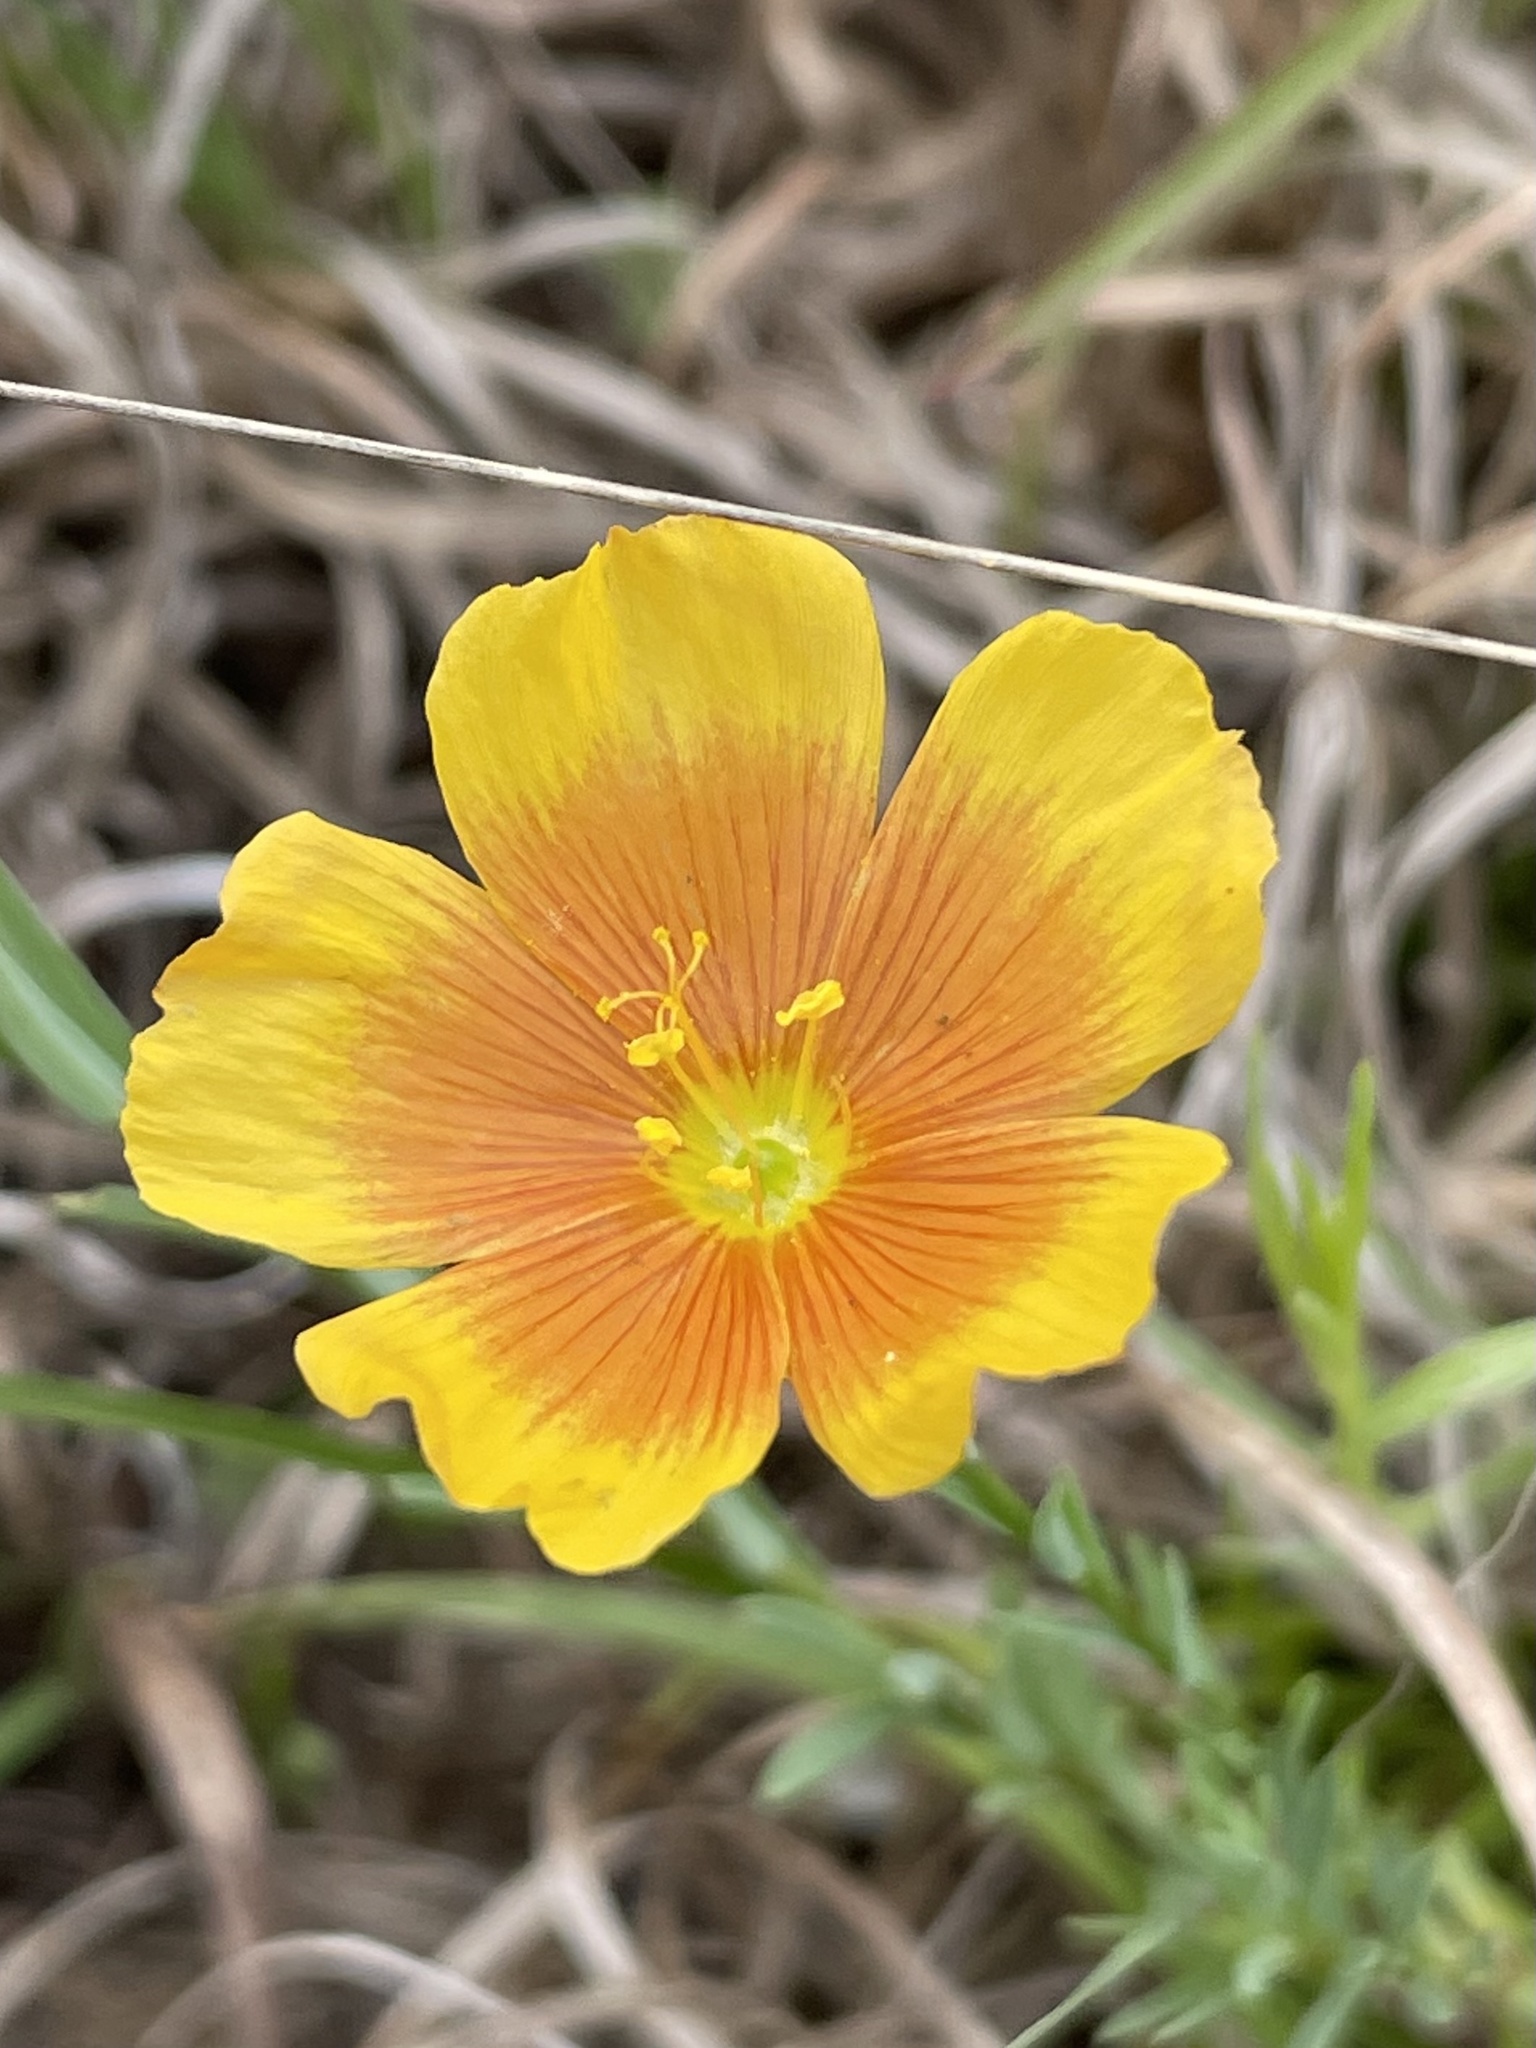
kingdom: Plantae
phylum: Tracheophyta
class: Magnoliopsida
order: Malpighiales
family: Linaceae
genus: Linum
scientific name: Linum rigidum
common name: Stiff-stem flax
